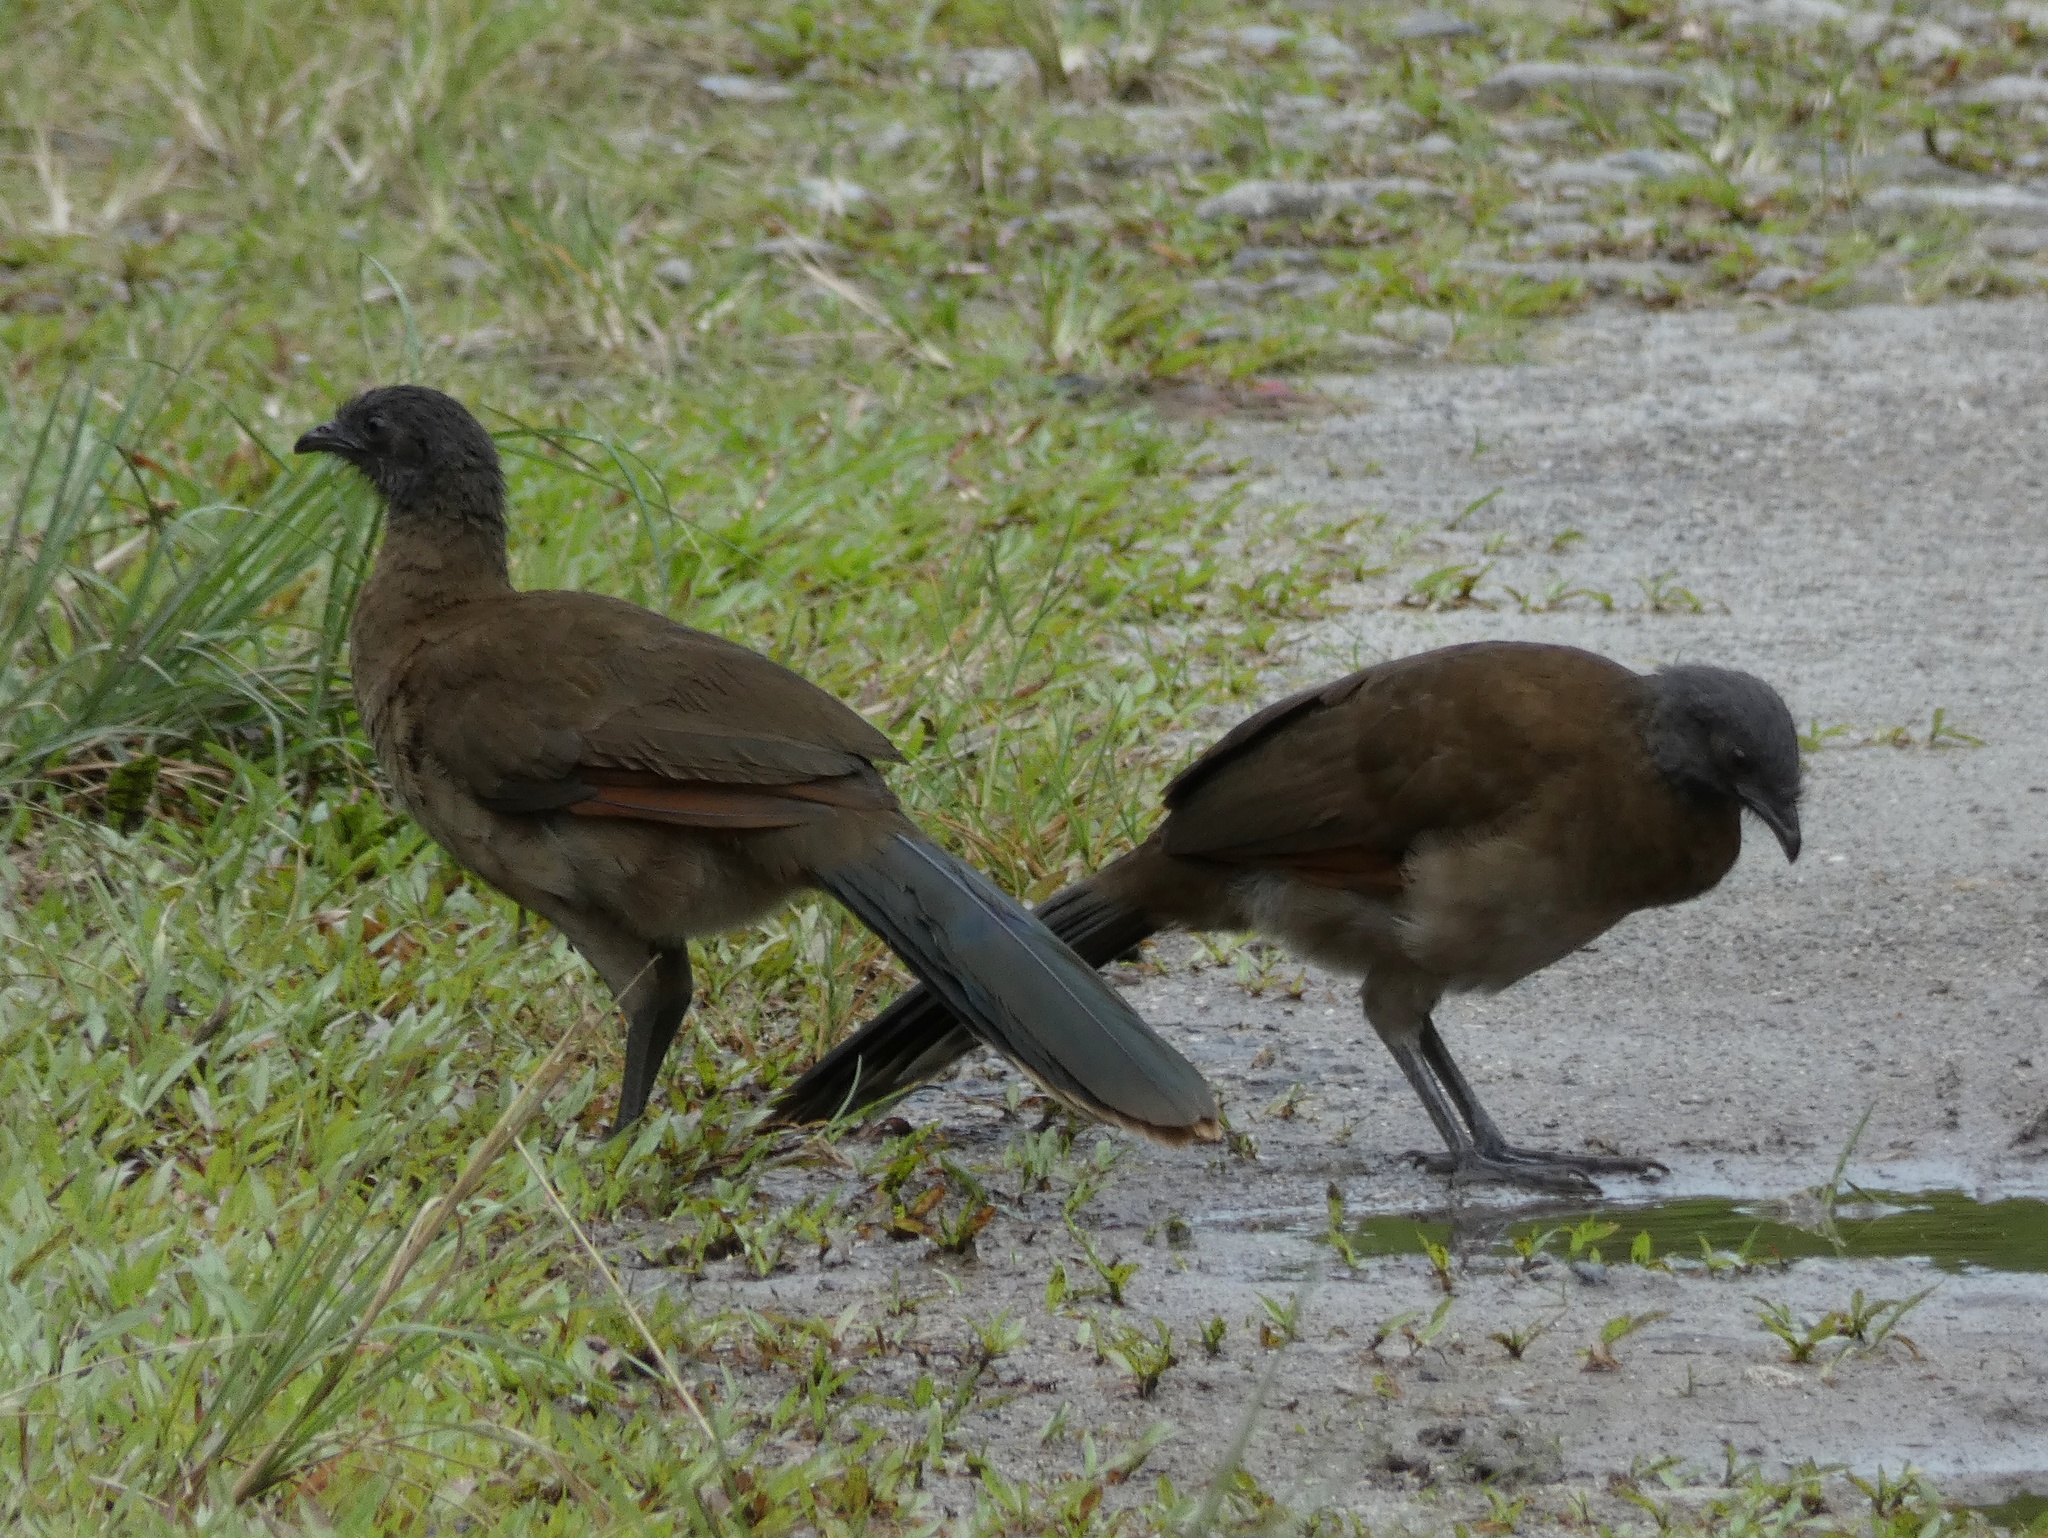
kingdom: Animalia
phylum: Chordata
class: Aves
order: Galliformes
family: Cracidae
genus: Ortalis
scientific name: Ortalis cinereiceps
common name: Grey-headed chachalaca
